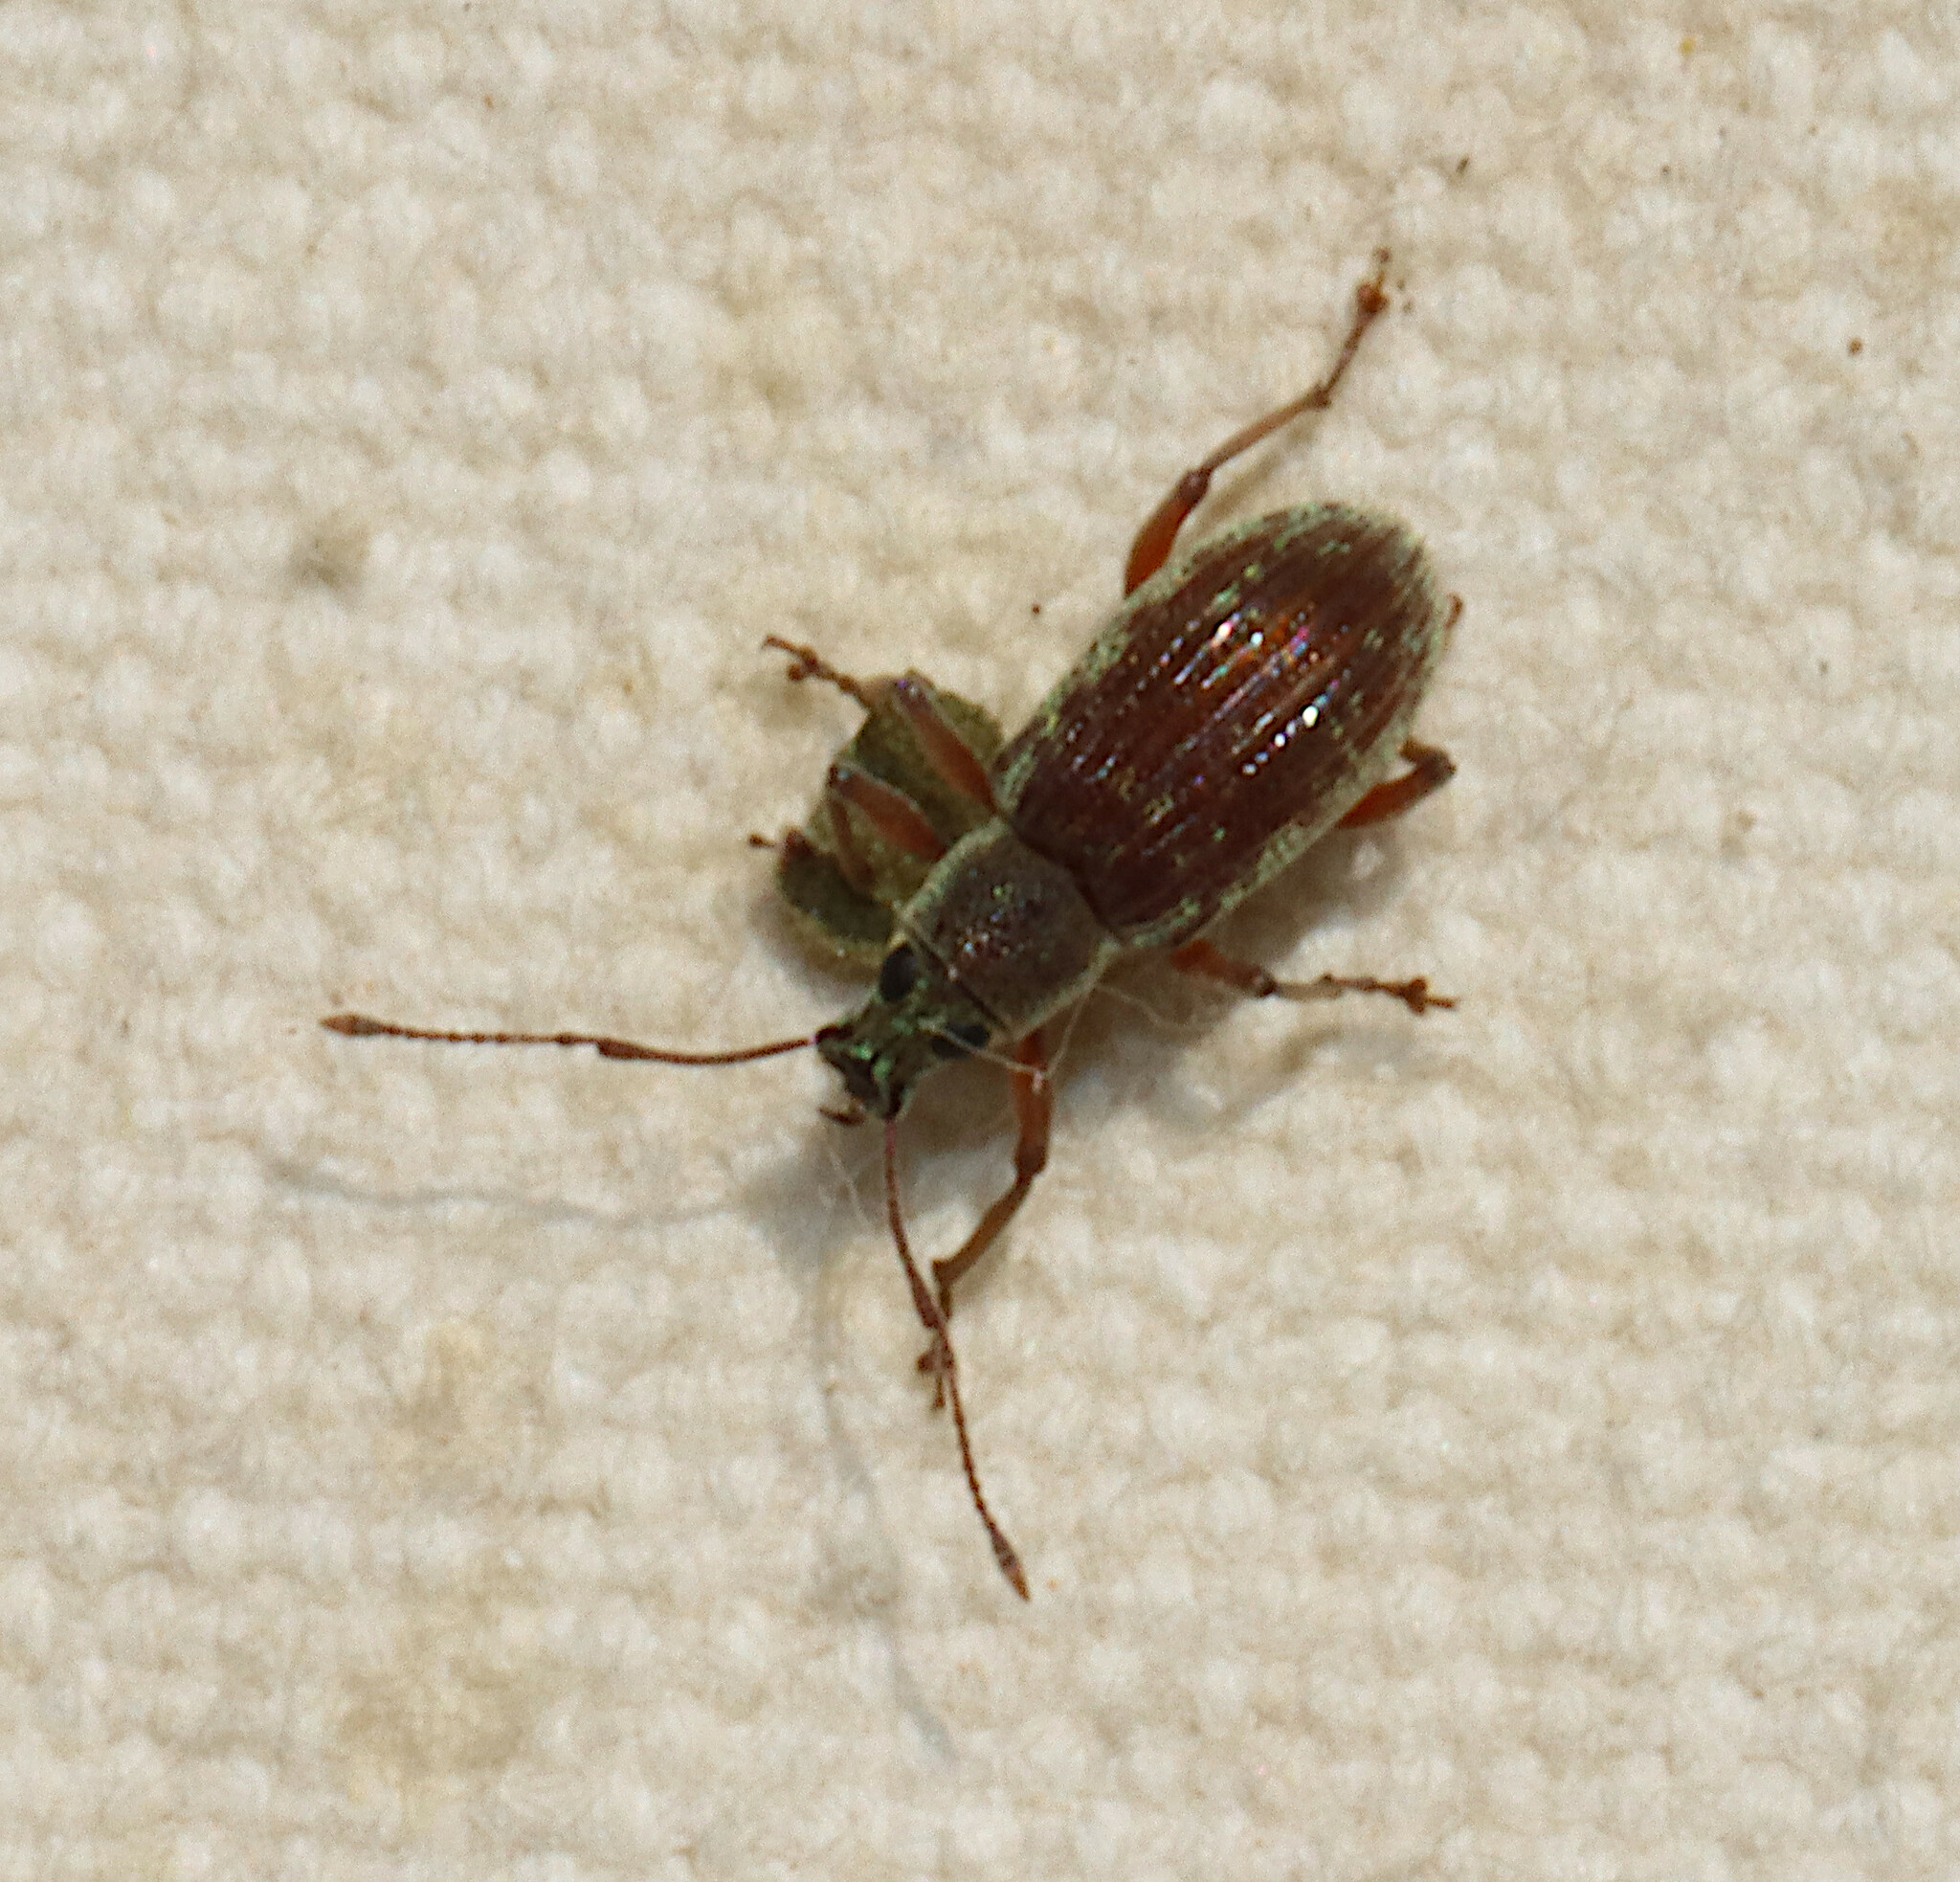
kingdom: Animalia
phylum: Arthropoda
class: Insecta
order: Coleoptera
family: Curculionidae
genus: Cyrtepistomus
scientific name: Cyrtepistomus castaneus
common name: Weevil
